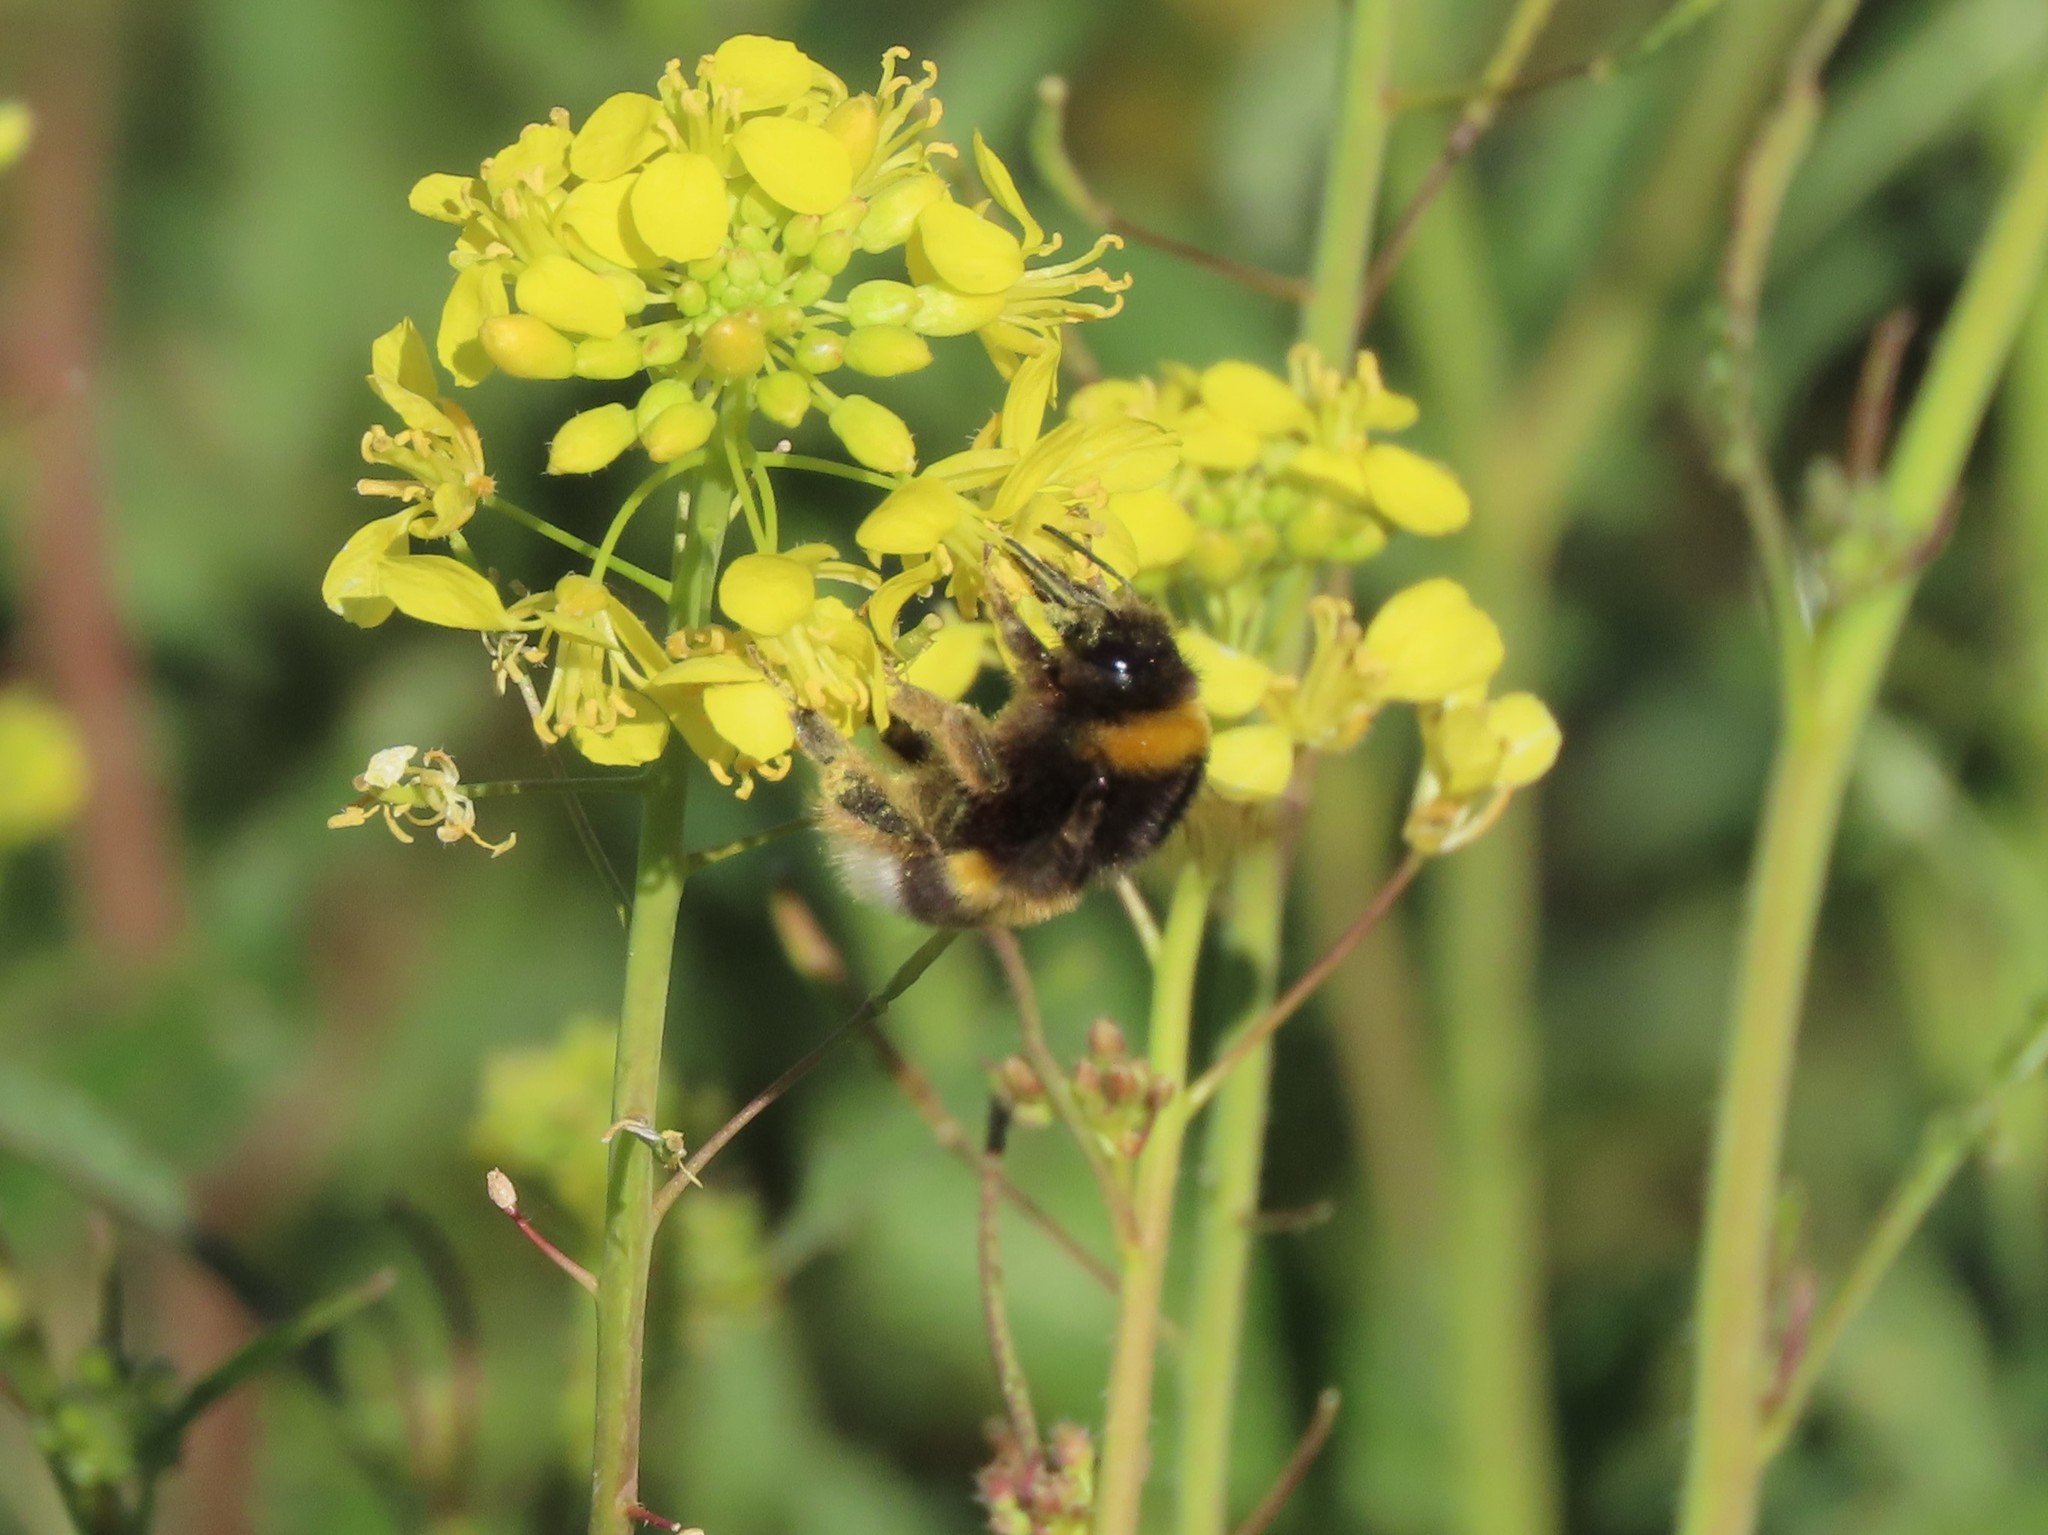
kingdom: Animalia
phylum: Arthropoda
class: Insecta
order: Hymenoptera
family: Apidae
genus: Bombus
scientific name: Bombus terrestris
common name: Buff-tailed bumblebee
